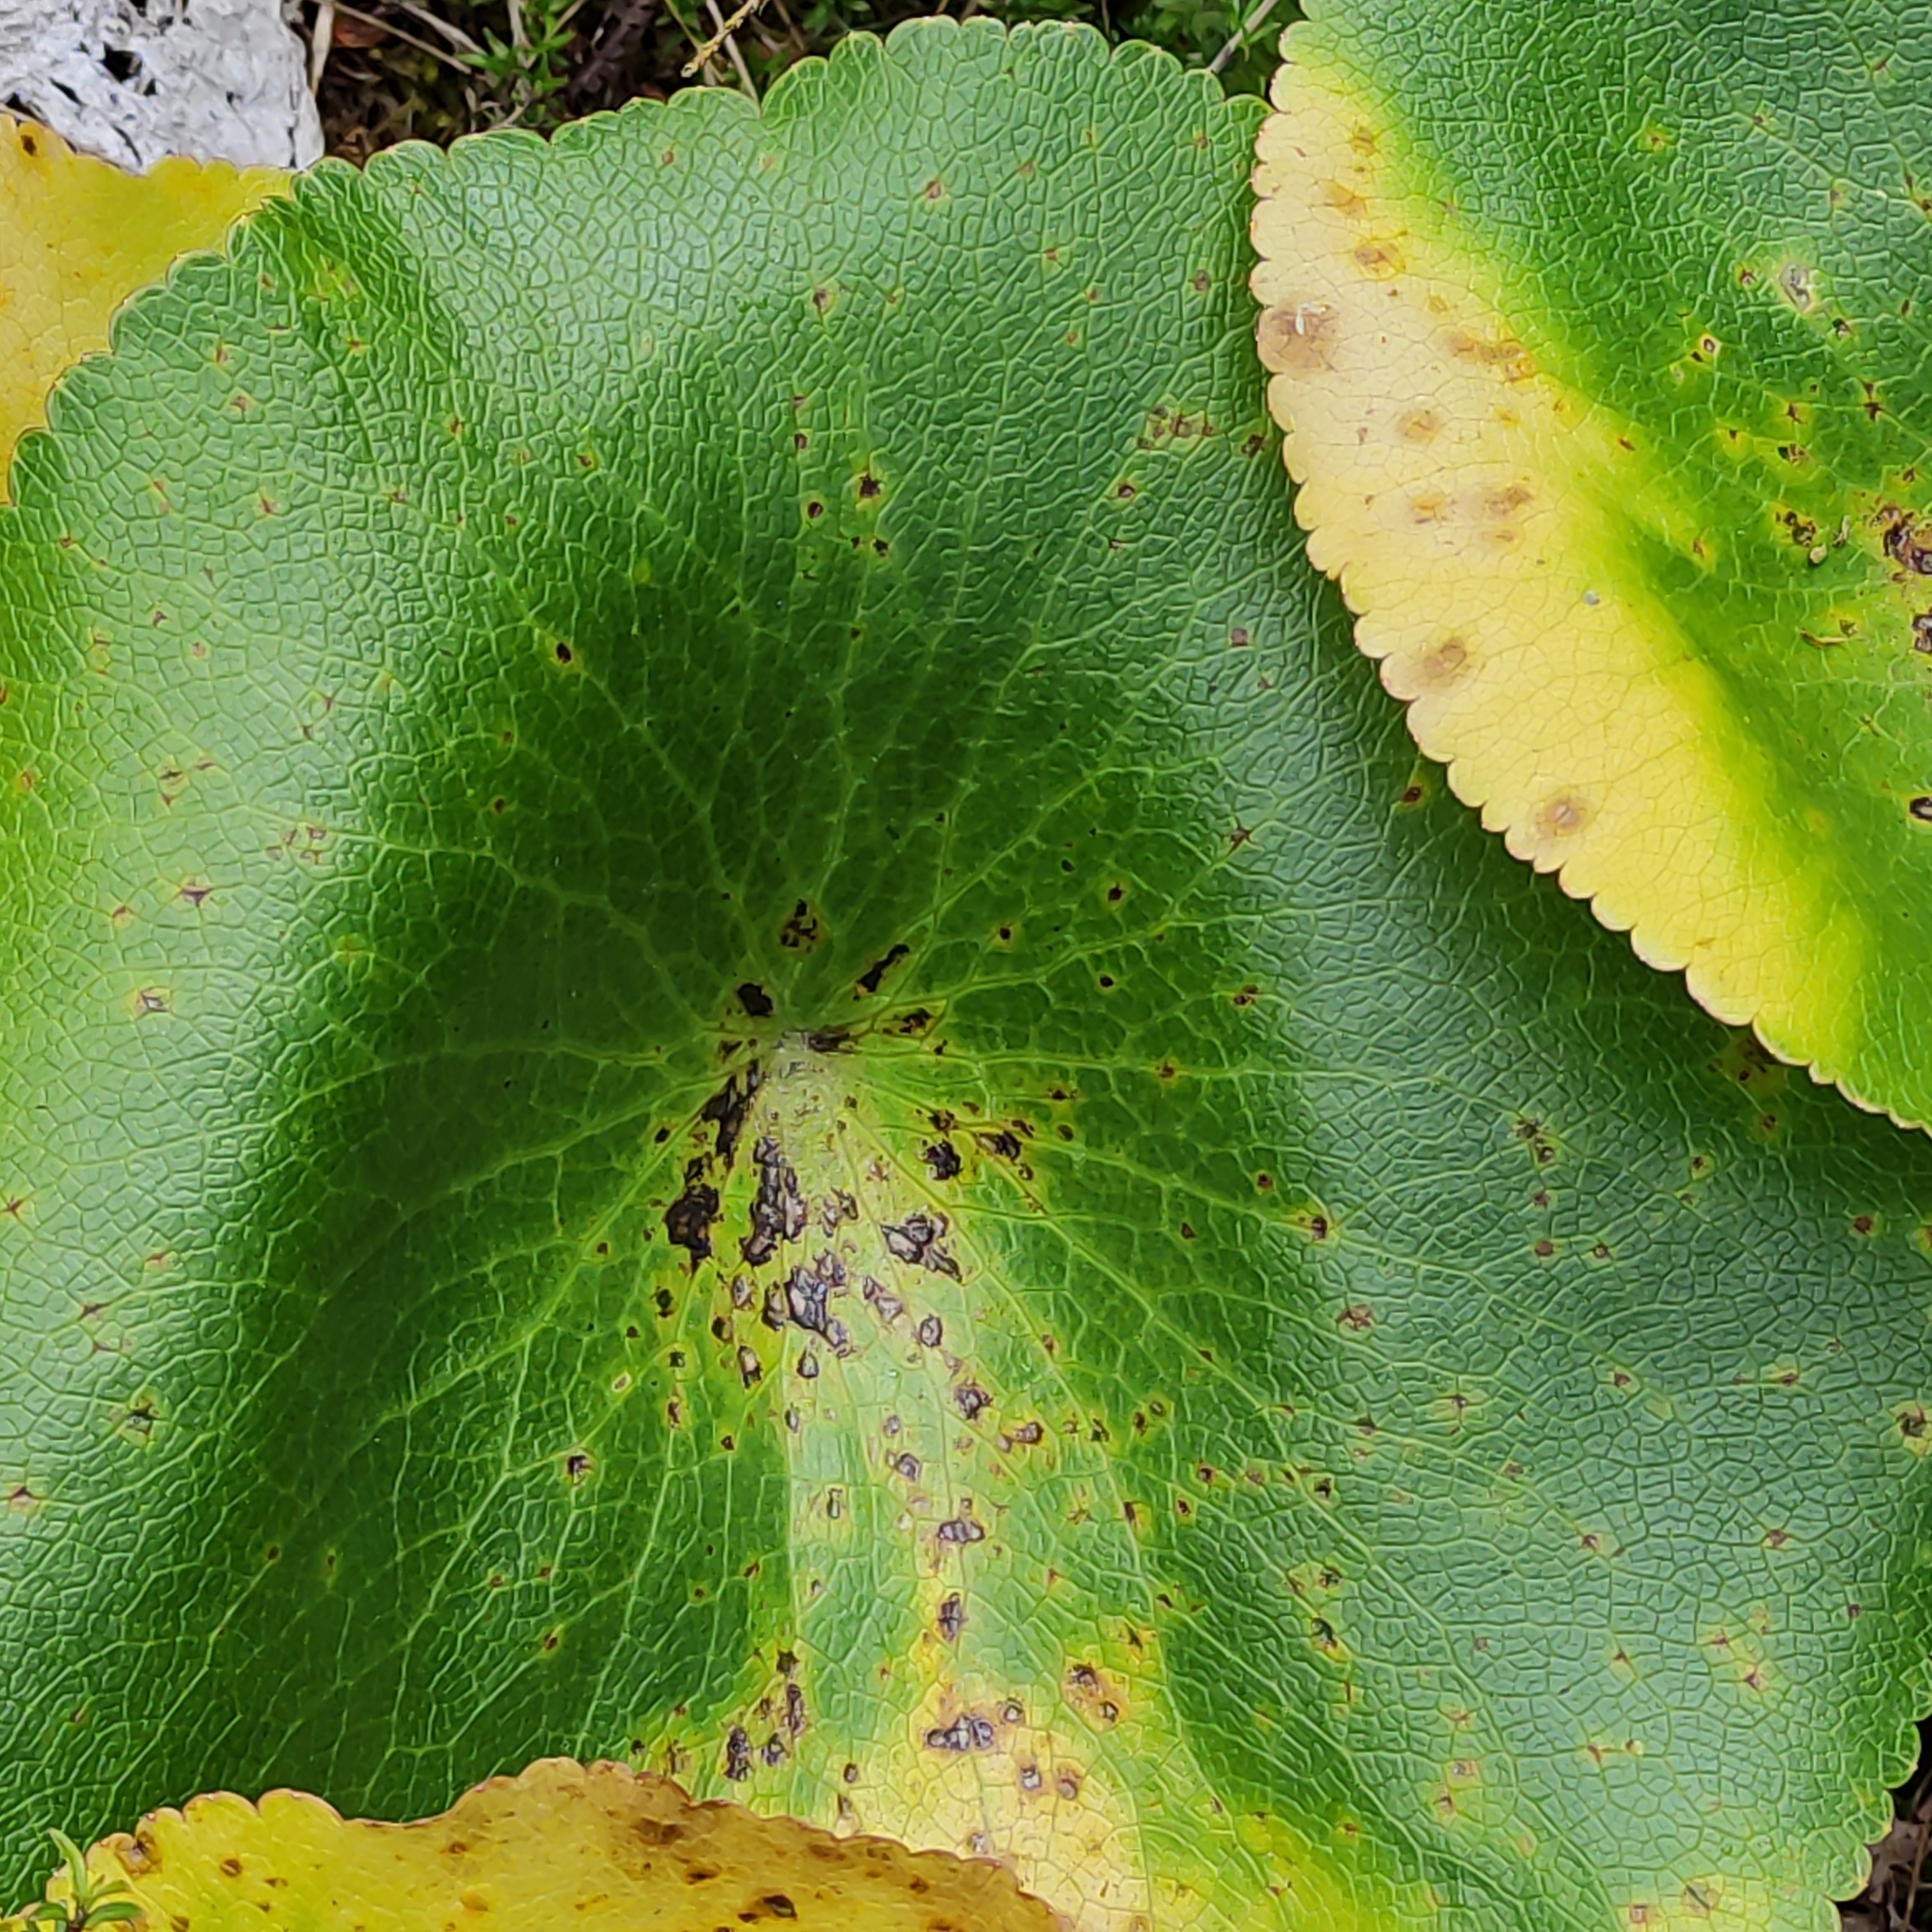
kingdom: Plantae
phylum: Tracheophyta
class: Magnoliopsida
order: Ranunculales
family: Ranunculaceae
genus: Ranunculus
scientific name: Ranunculus lyallii
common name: Mountain-lily
